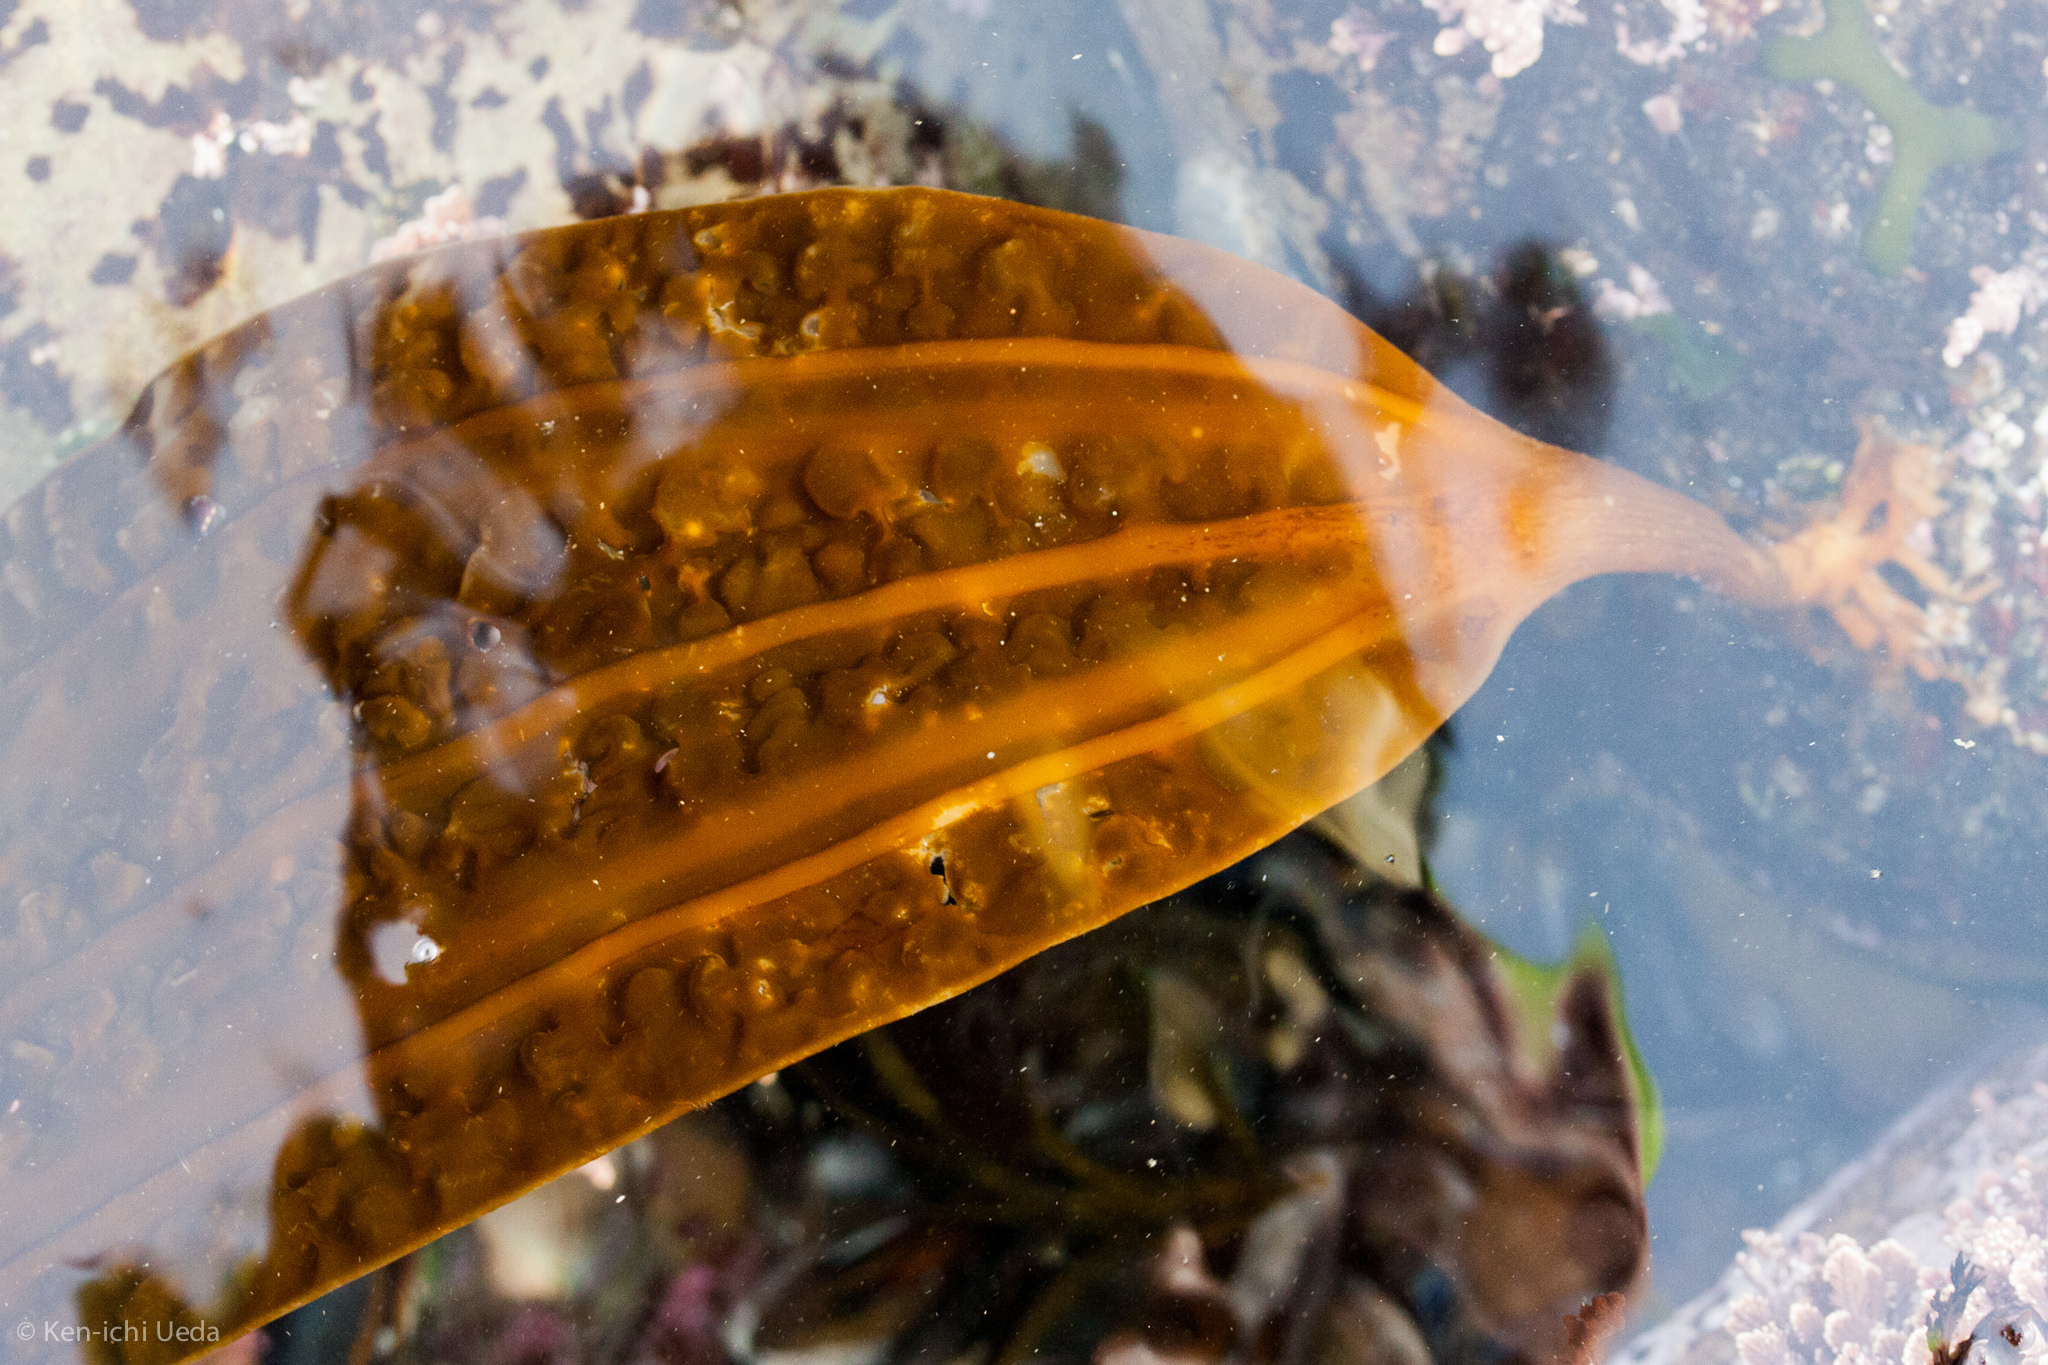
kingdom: Chromista
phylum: Ochrophyta
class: Phaeophyceae
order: Laminariales
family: Costariaceae
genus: Costaria
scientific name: Costaria costata
